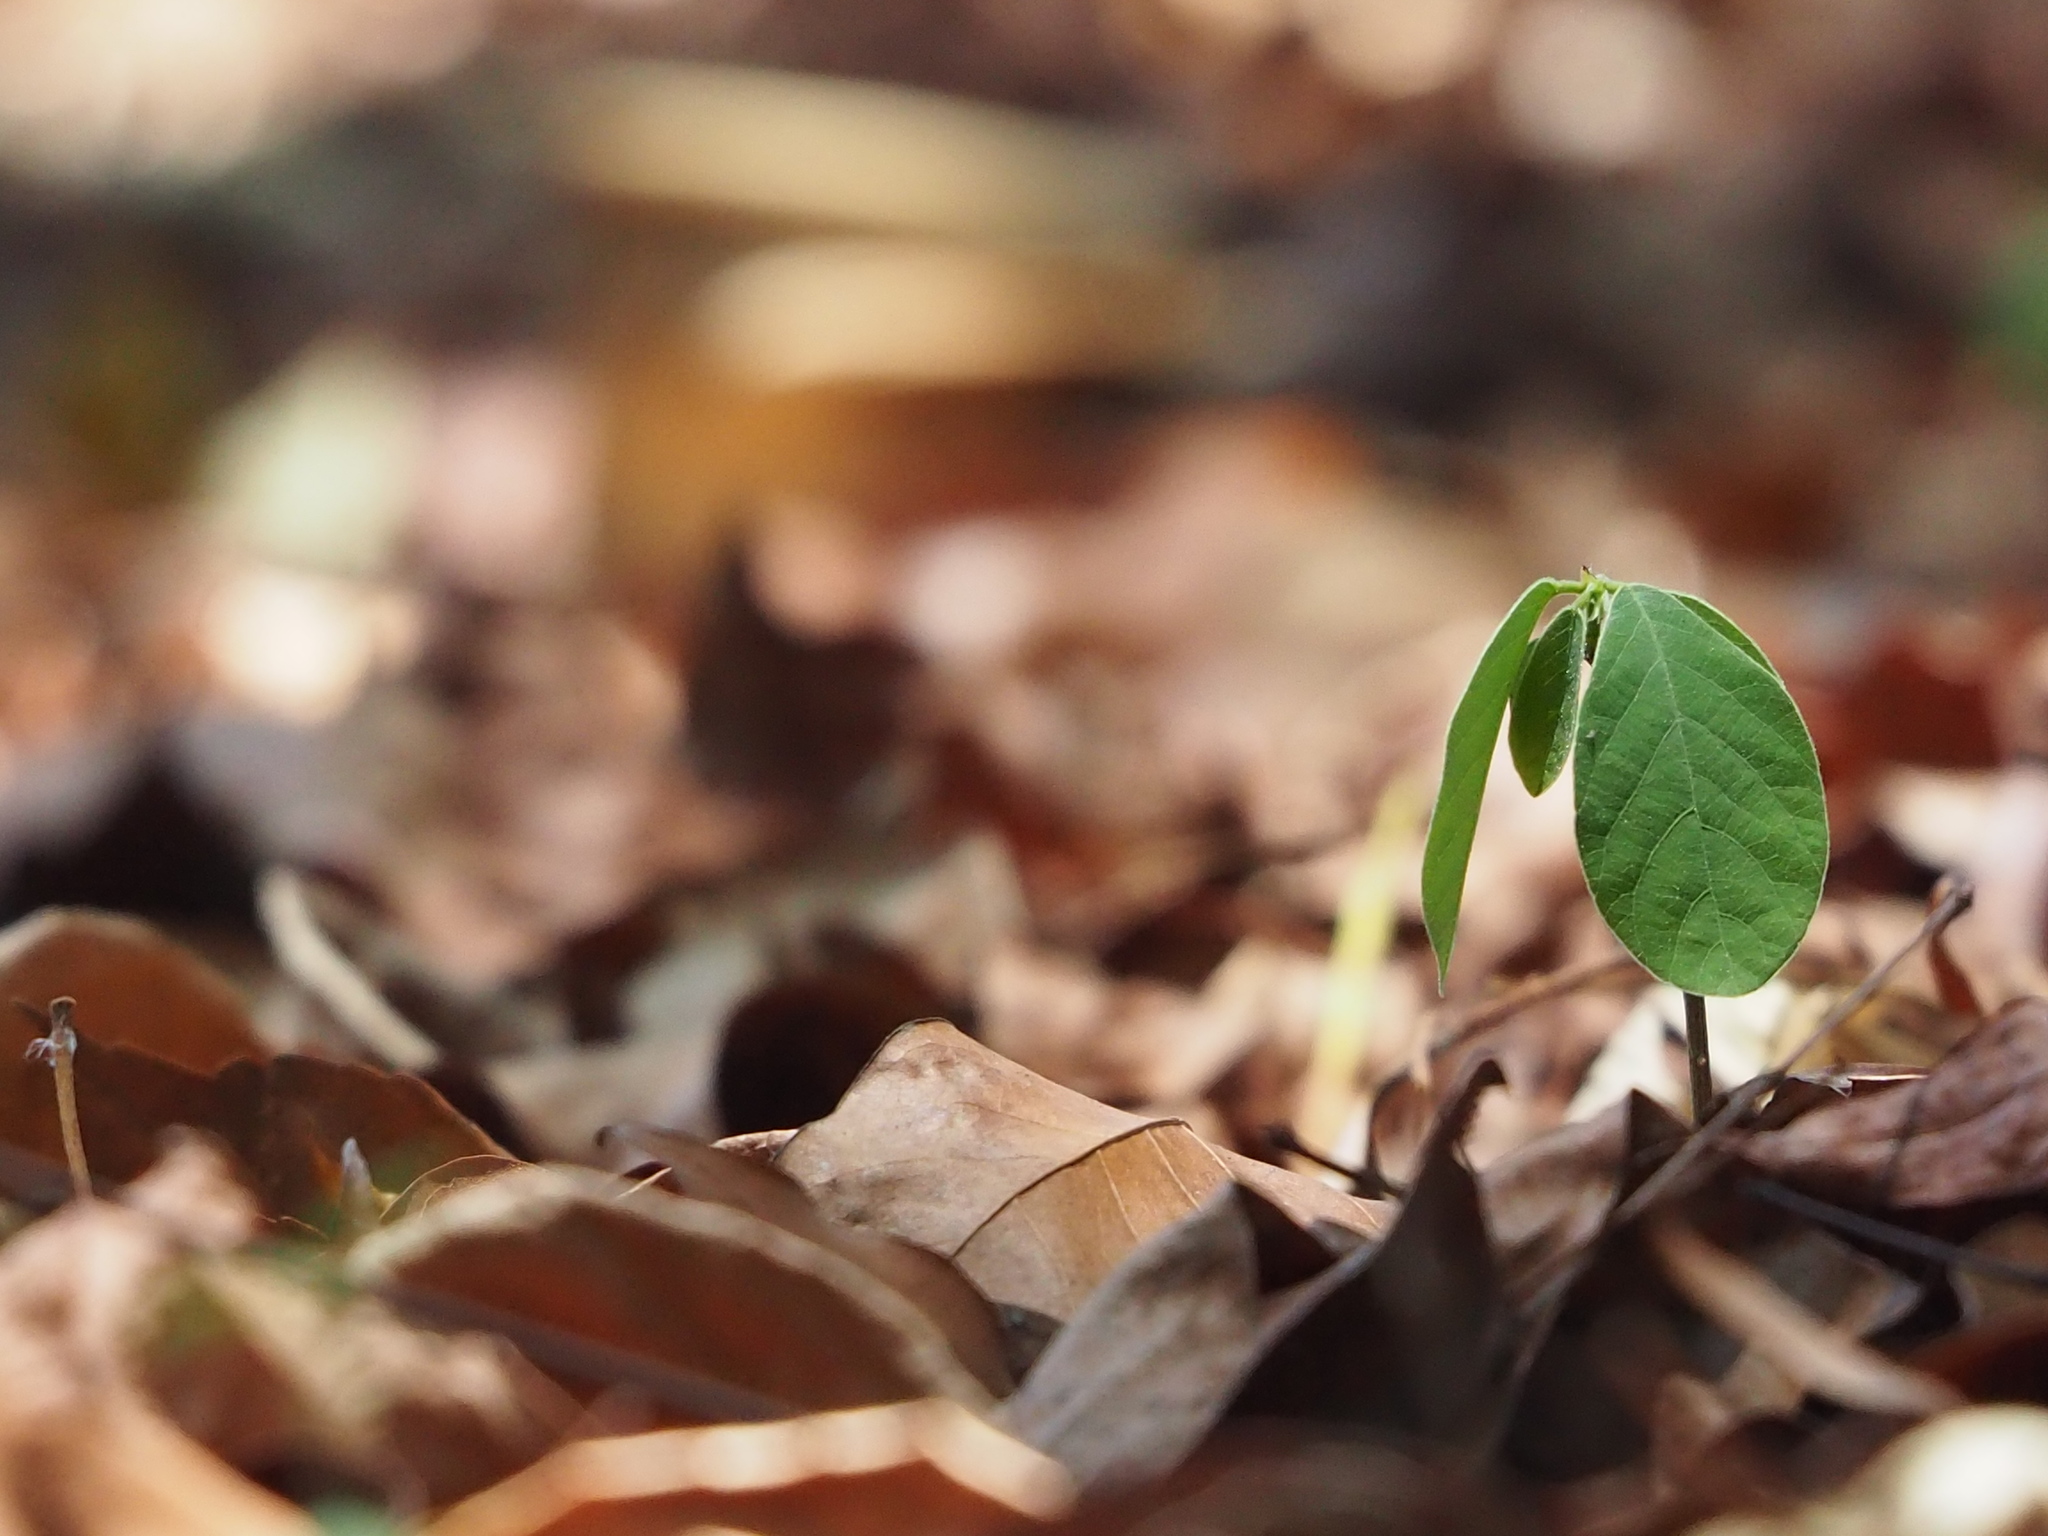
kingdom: Plantae
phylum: Tracheophyta
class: Magnoliopsida
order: Malpighiales
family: Phyllanthaceae
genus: Bridelia
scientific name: Bridelia tomentosa
